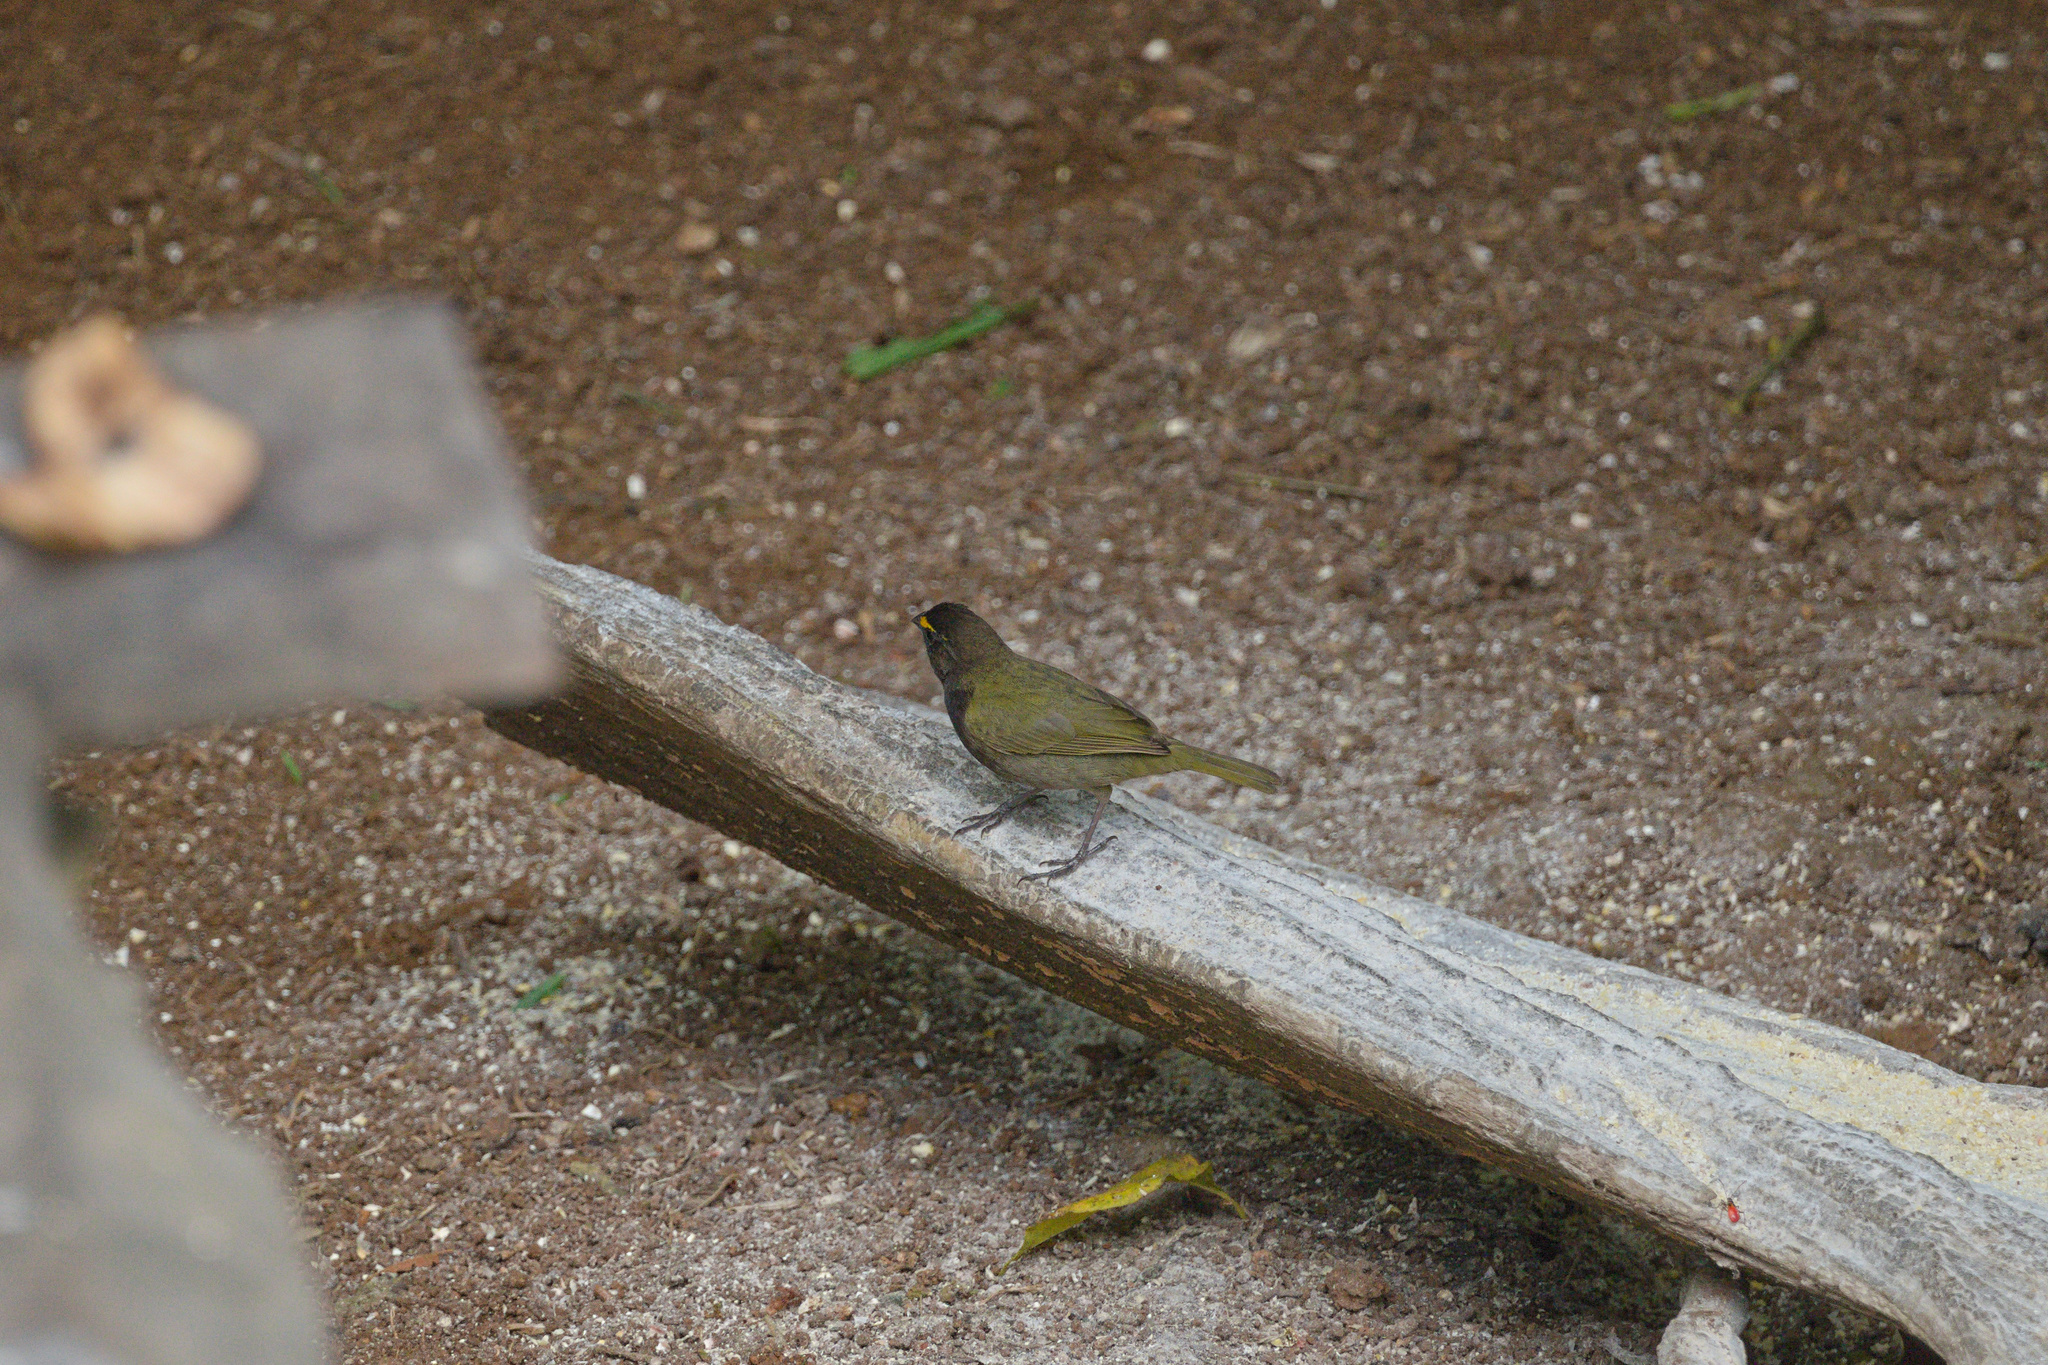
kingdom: Animalia
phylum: Chordata
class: Aves
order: Passeriformes
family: Thraupidae
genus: Tiaris
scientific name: Tiaris olivaceus
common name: Yellow-faced grassquit
